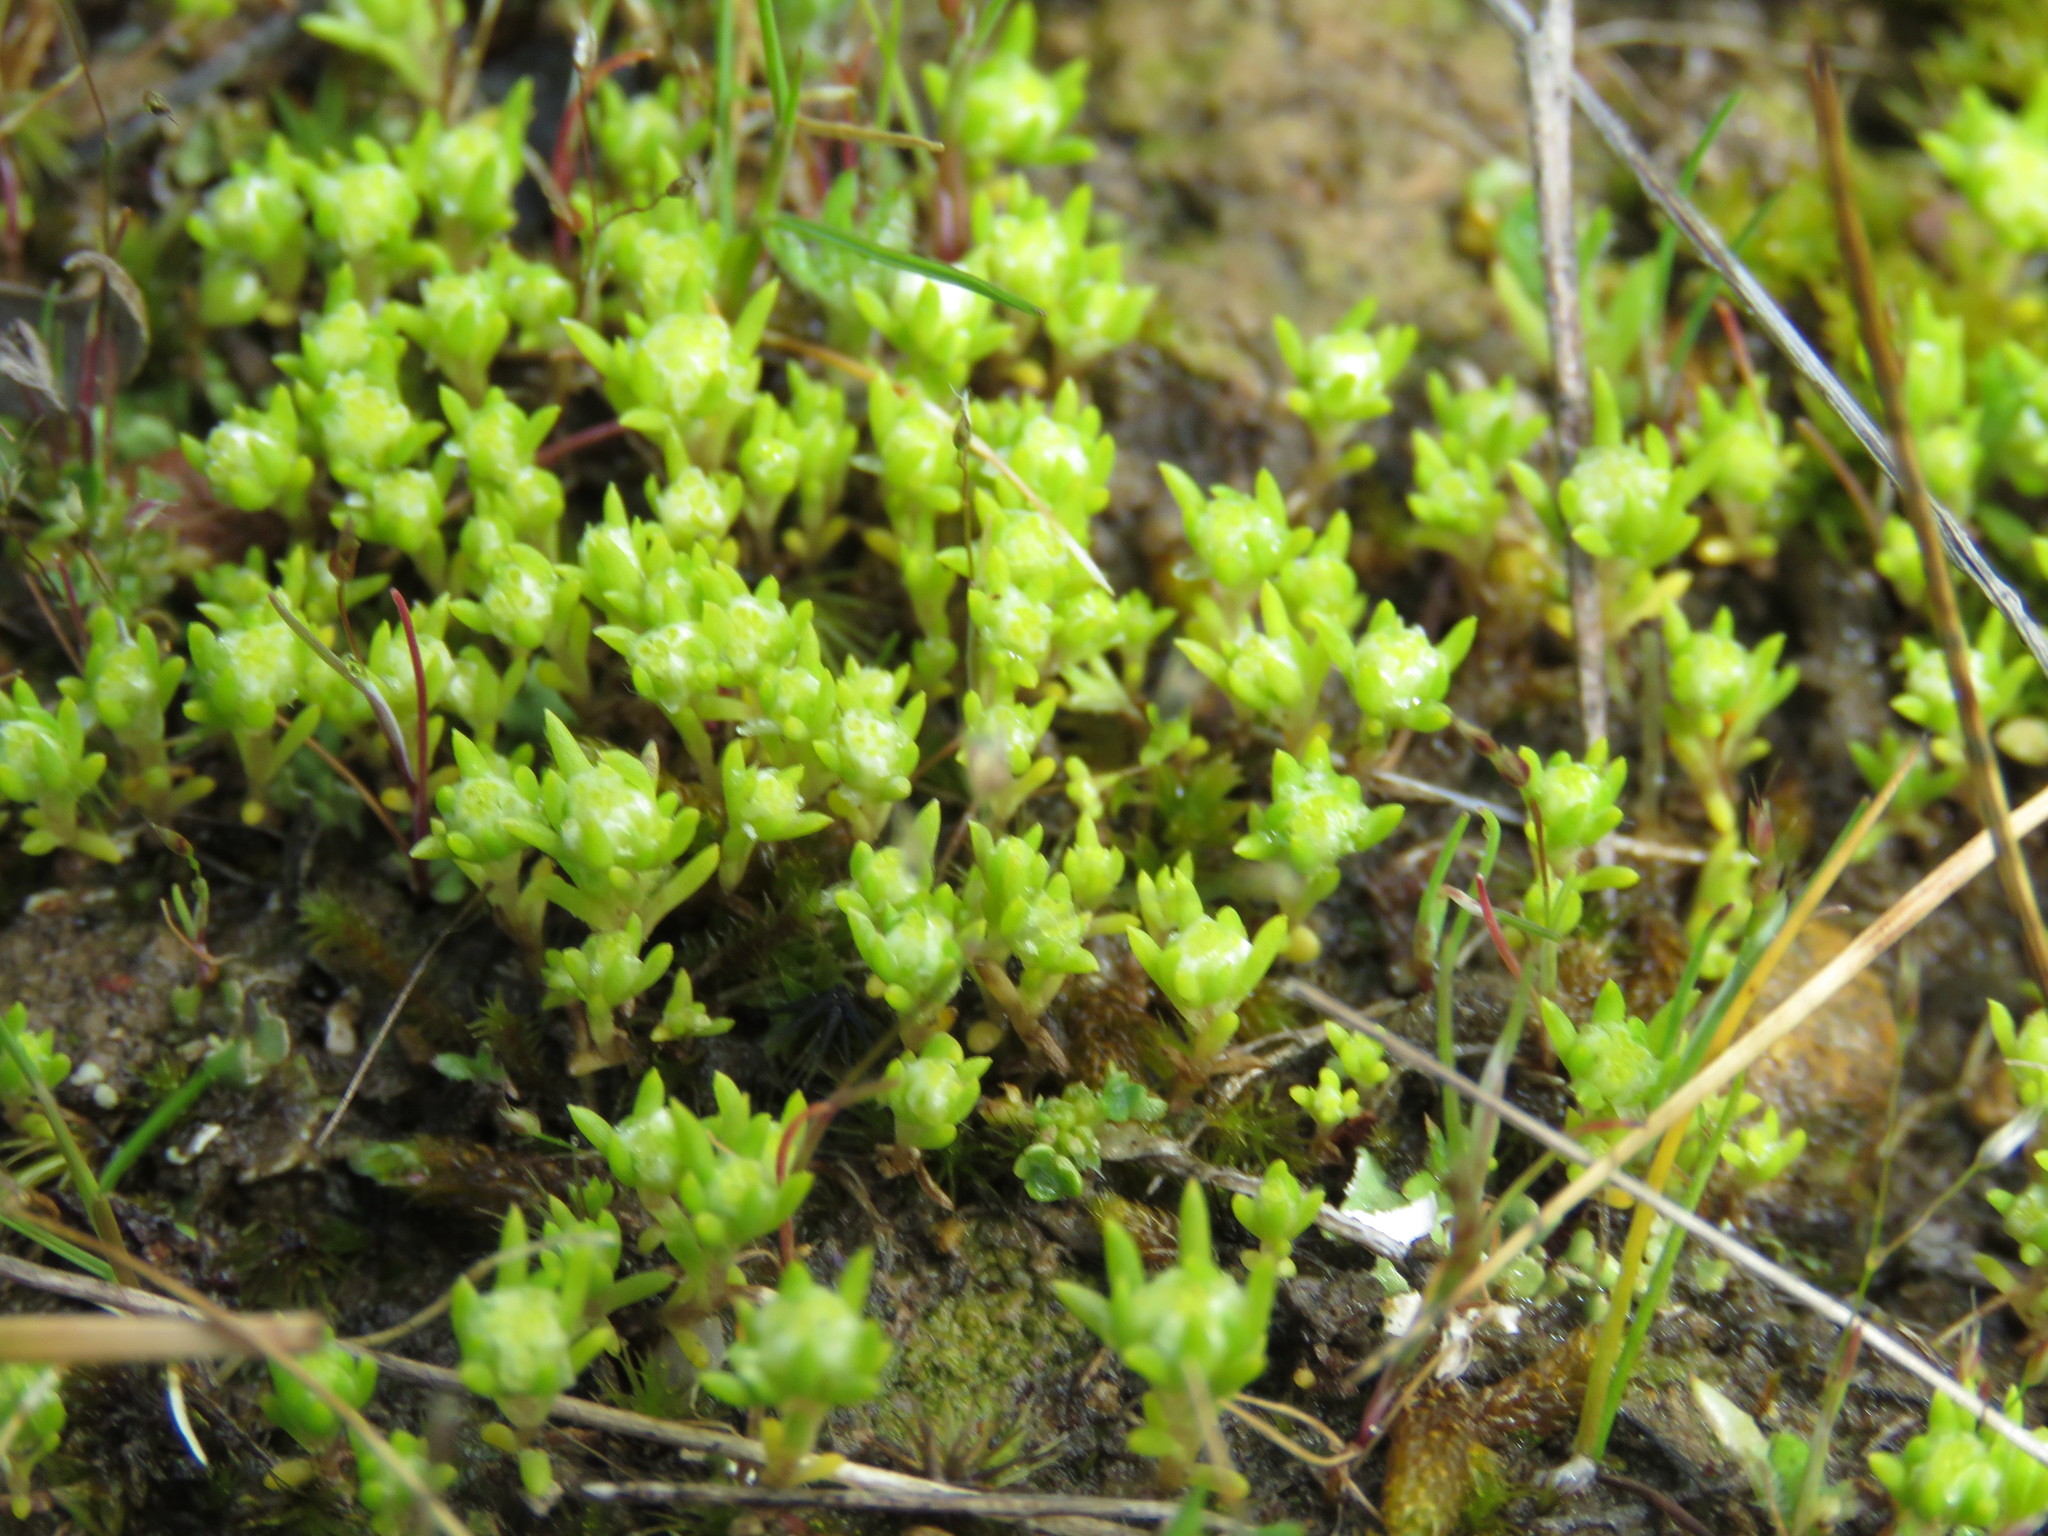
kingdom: Plantae
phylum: Tracheophyta
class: Magnoliopsida
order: Asterales
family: Asteraceae
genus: Siloxerus
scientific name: Siloxerus multiflorus
